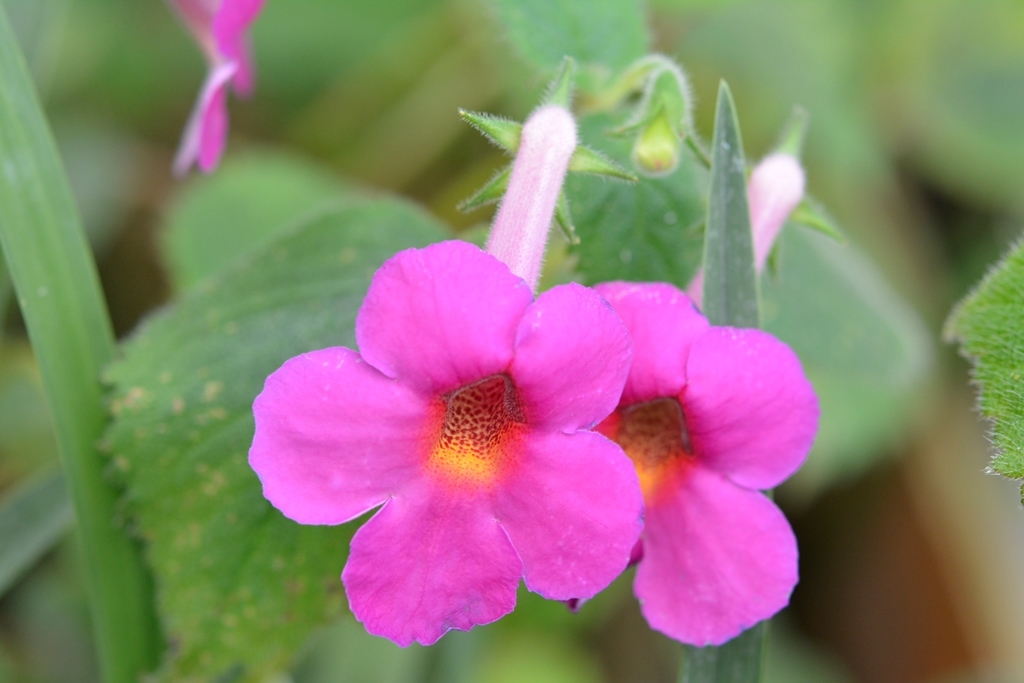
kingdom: Plantae
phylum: Tracheophyta
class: Magnoliopsida
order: Lamiales
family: Gesneriaceae
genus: Achimenes
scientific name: Achimenes skinneri
